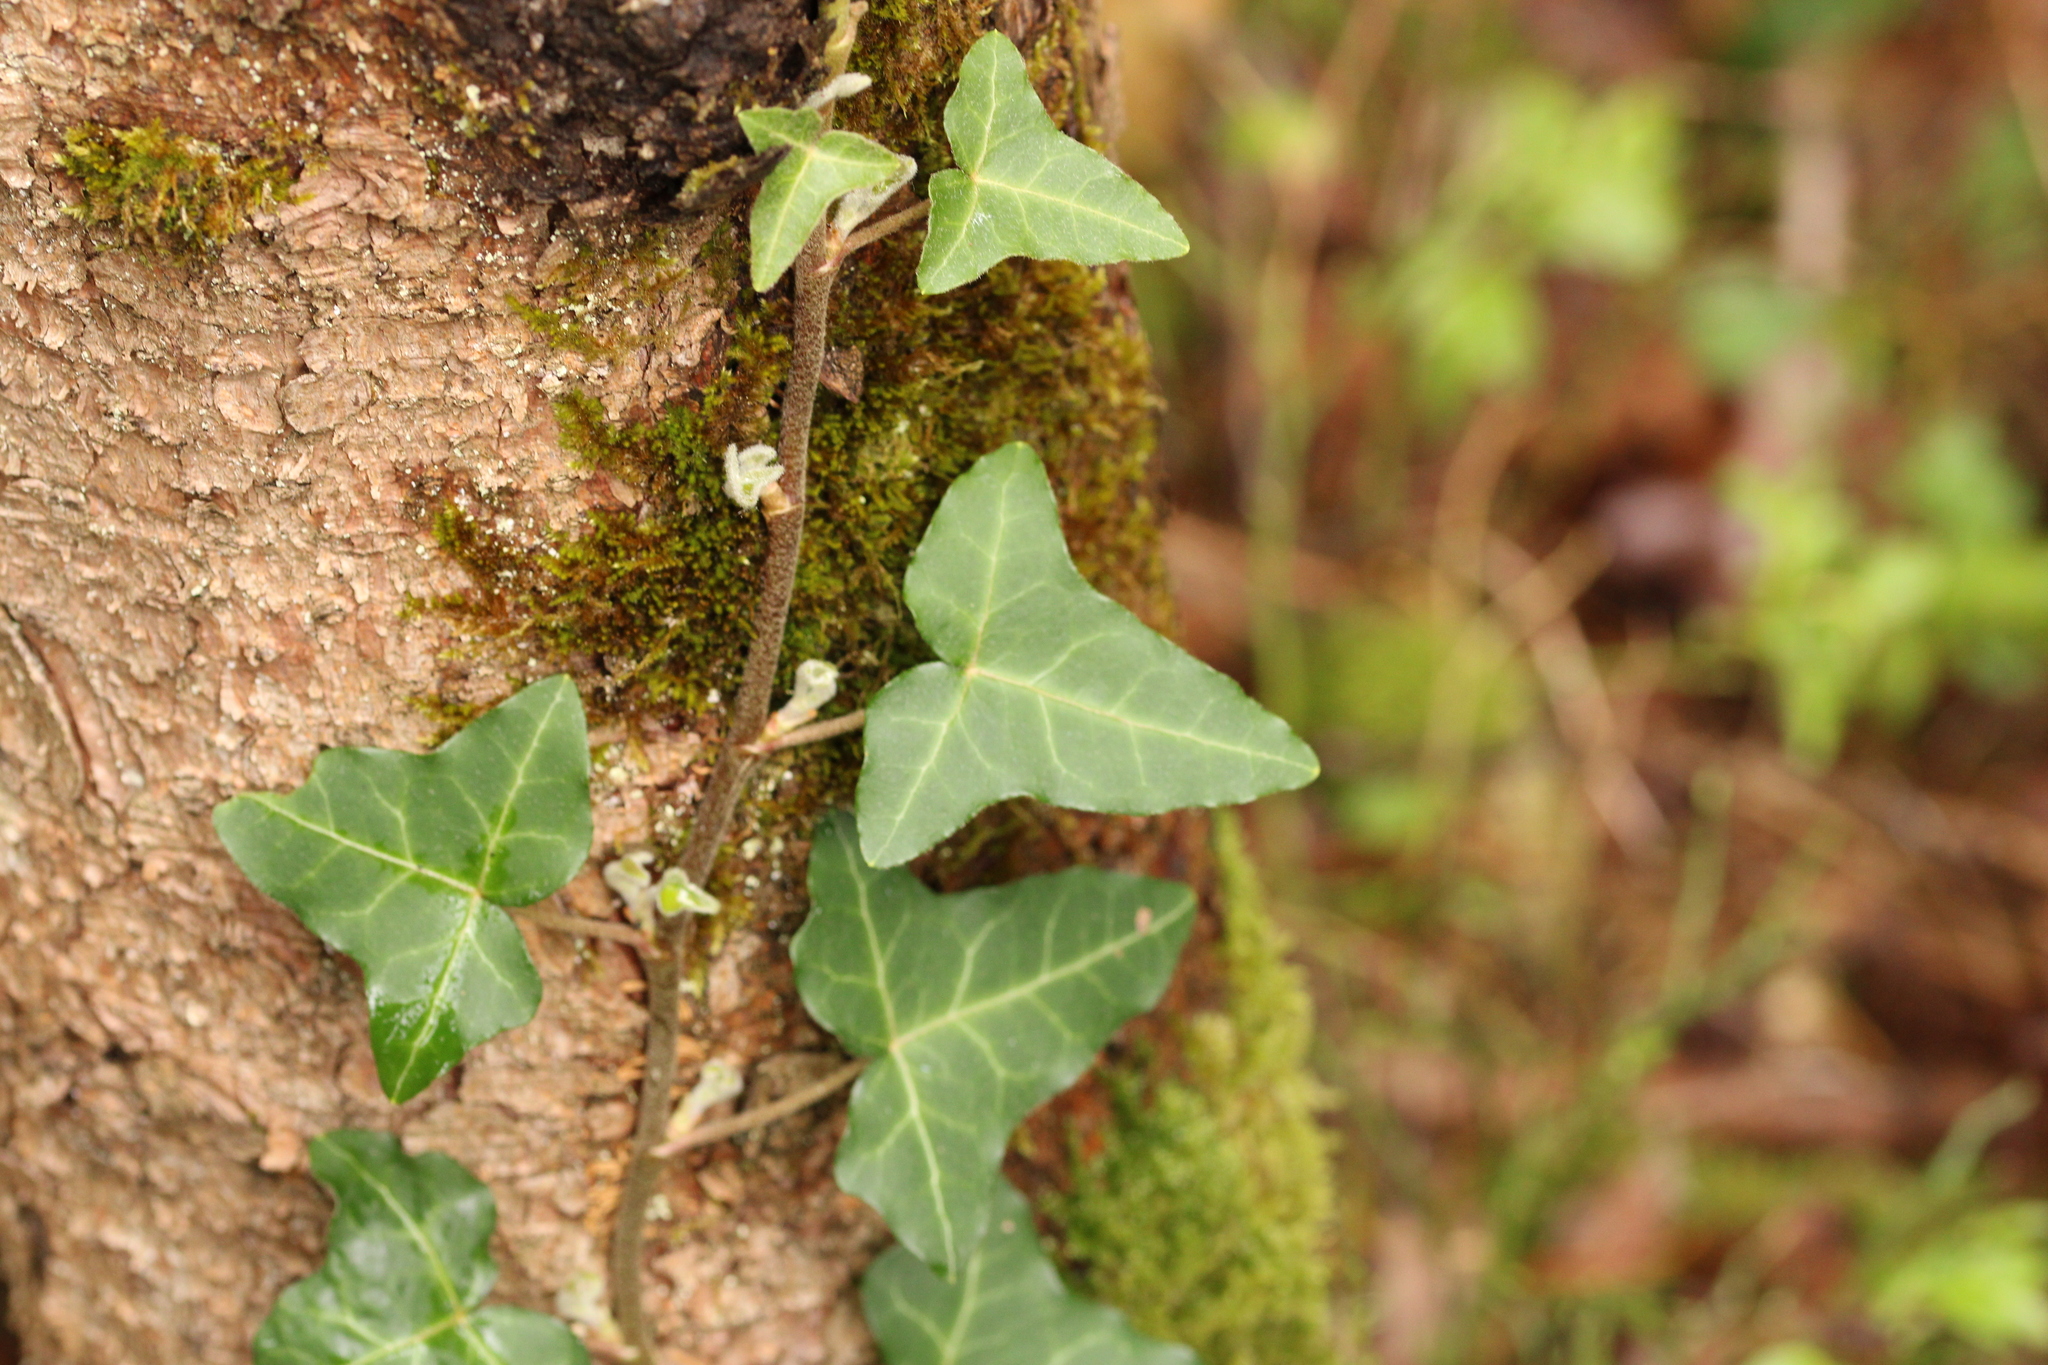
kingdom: Plantae
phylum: Tracheophyta
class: Magnoliopsida
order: Apiales
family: Araliaceae
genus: Hedera
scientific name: Hedera helix
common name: Ivy
